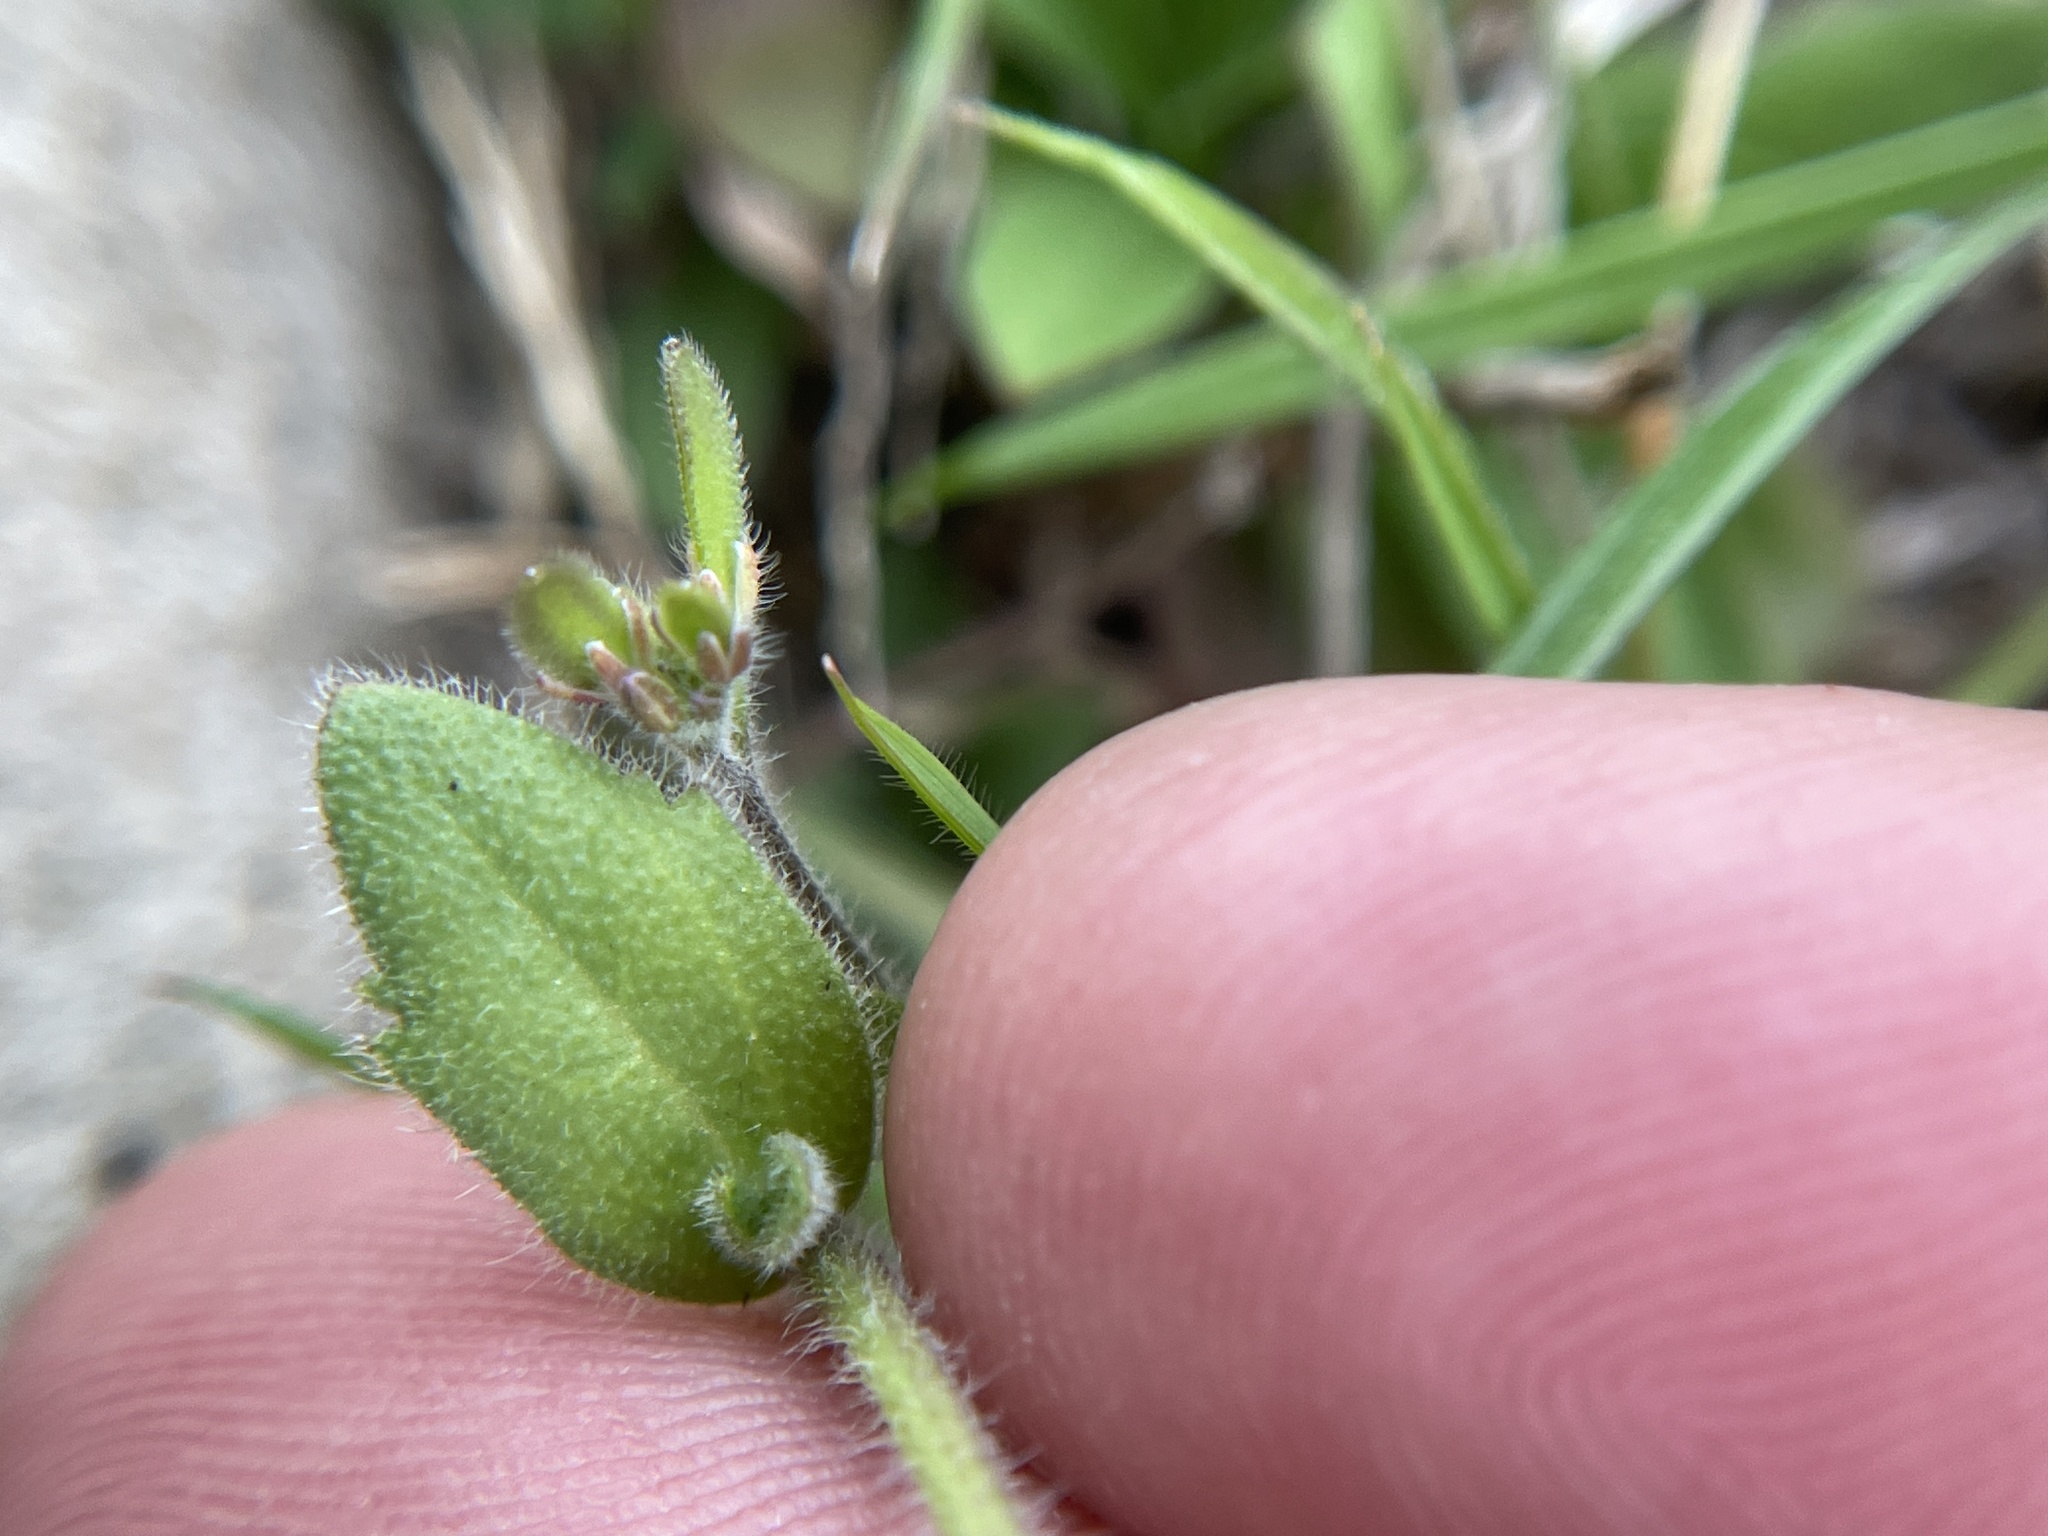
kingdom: Plantae
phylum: Tracheophyta
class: Magnoliopsida
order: Brassicales
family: Brassicaceae
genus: Tomostima
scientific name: Tomostima platycarpa
